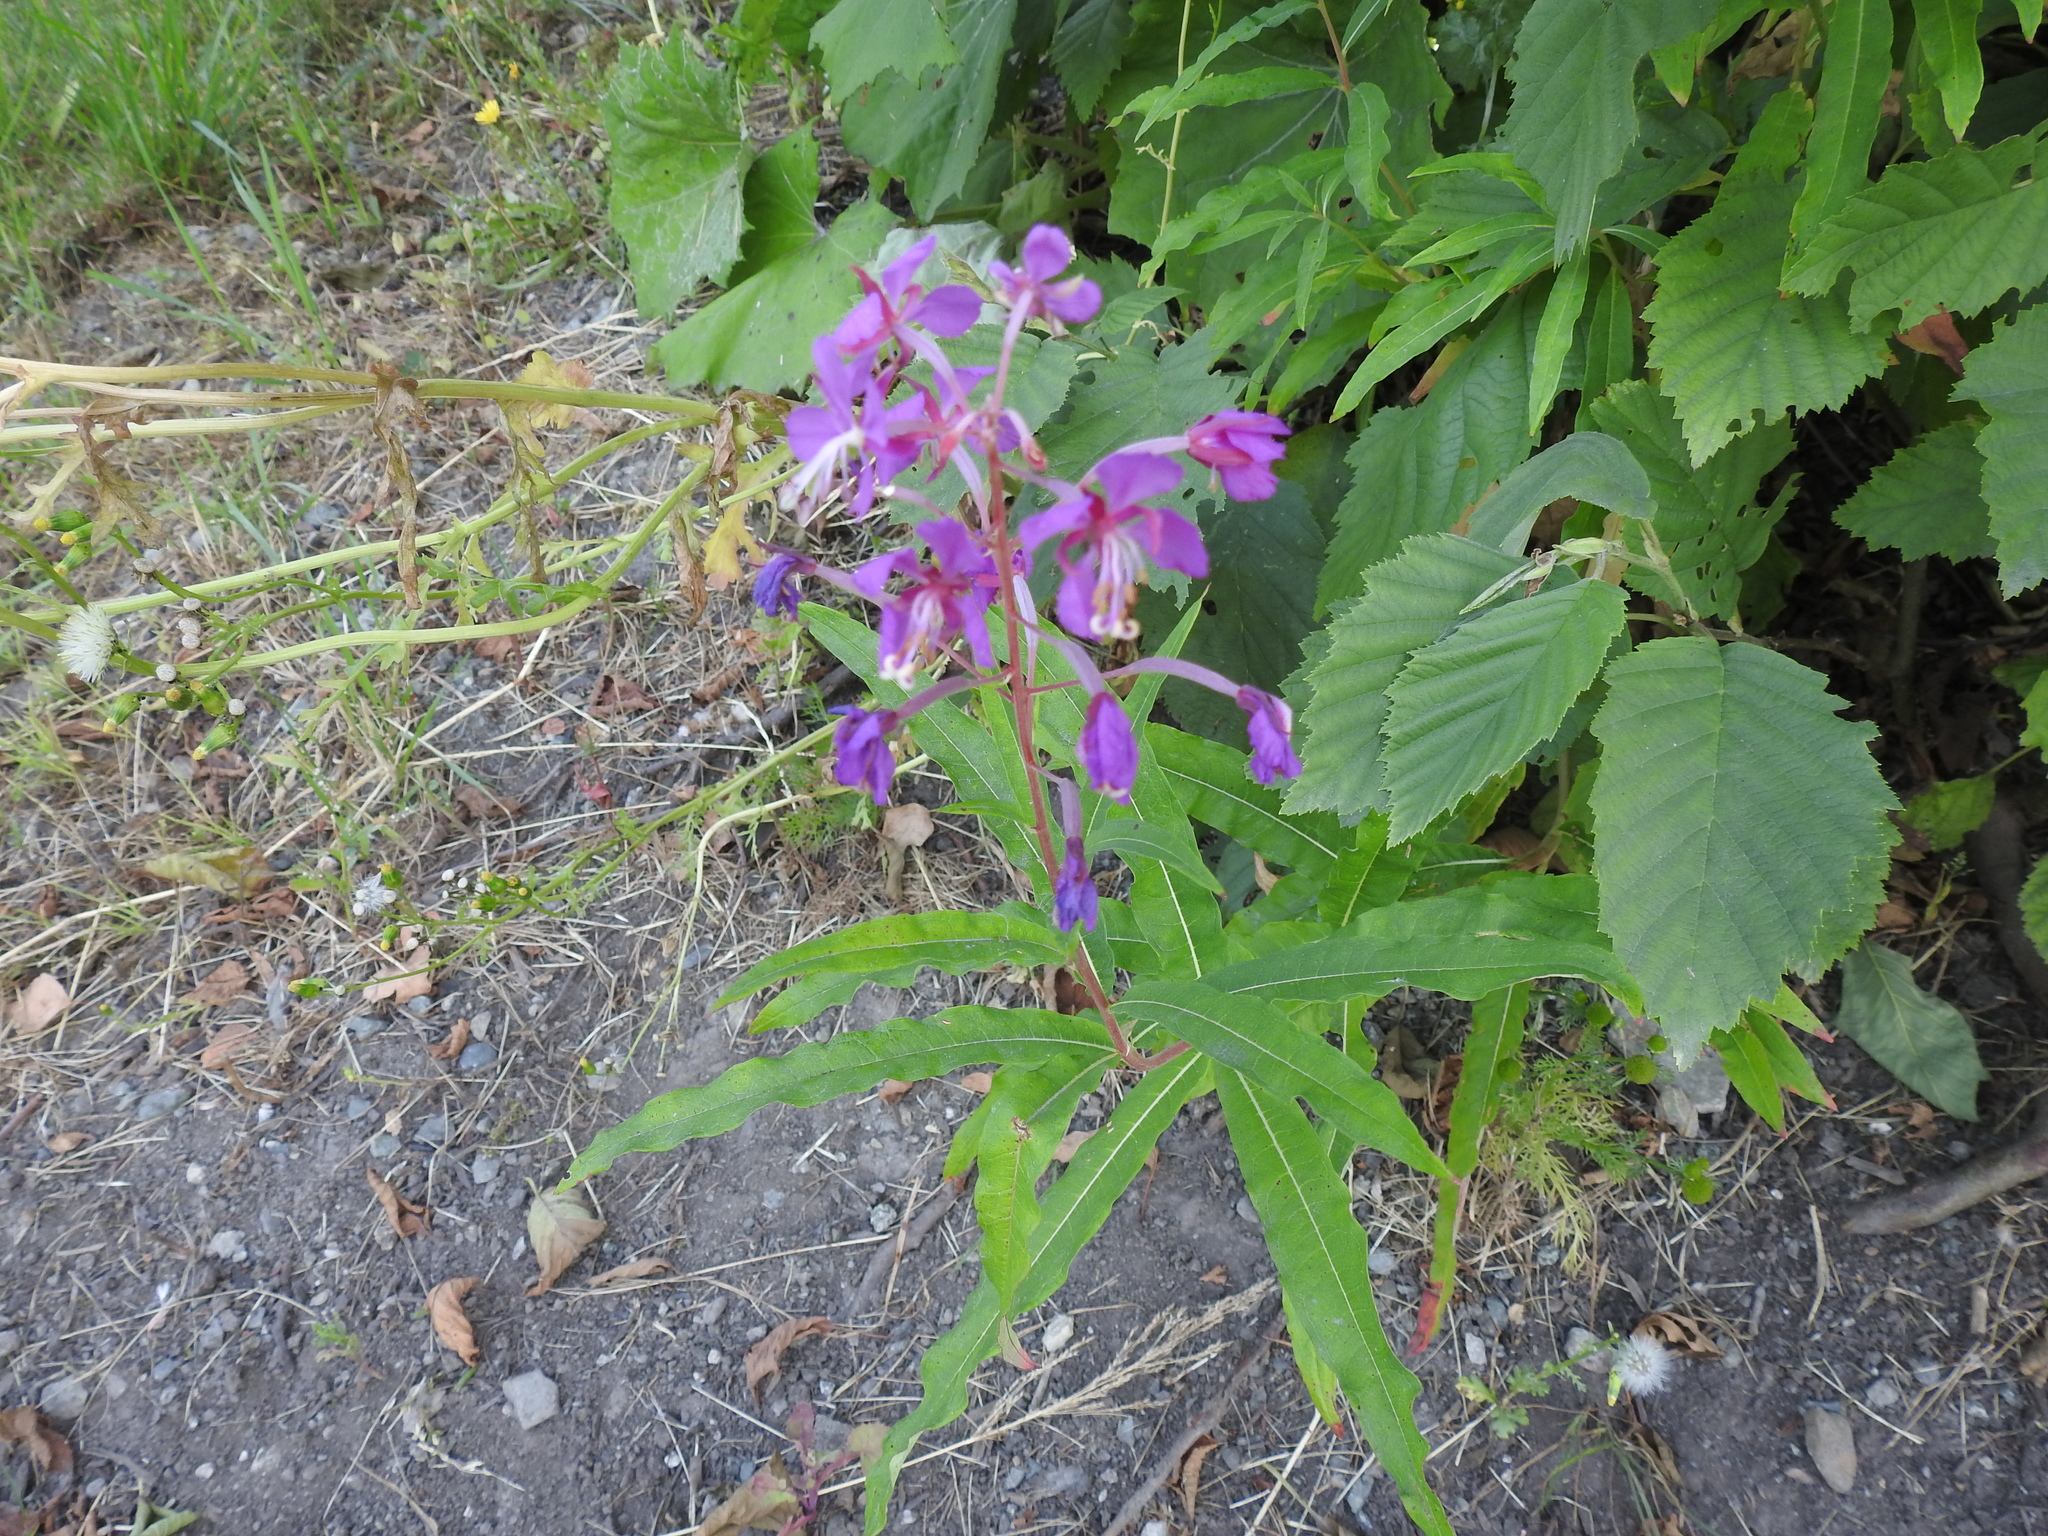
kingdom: Plantae
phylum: Tracheophyta
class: Magnoliopsida
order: Myrtales
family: Onagraceae
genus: Chamaenerion
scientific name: Chamaenerion angustifolium
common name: Fireweed
